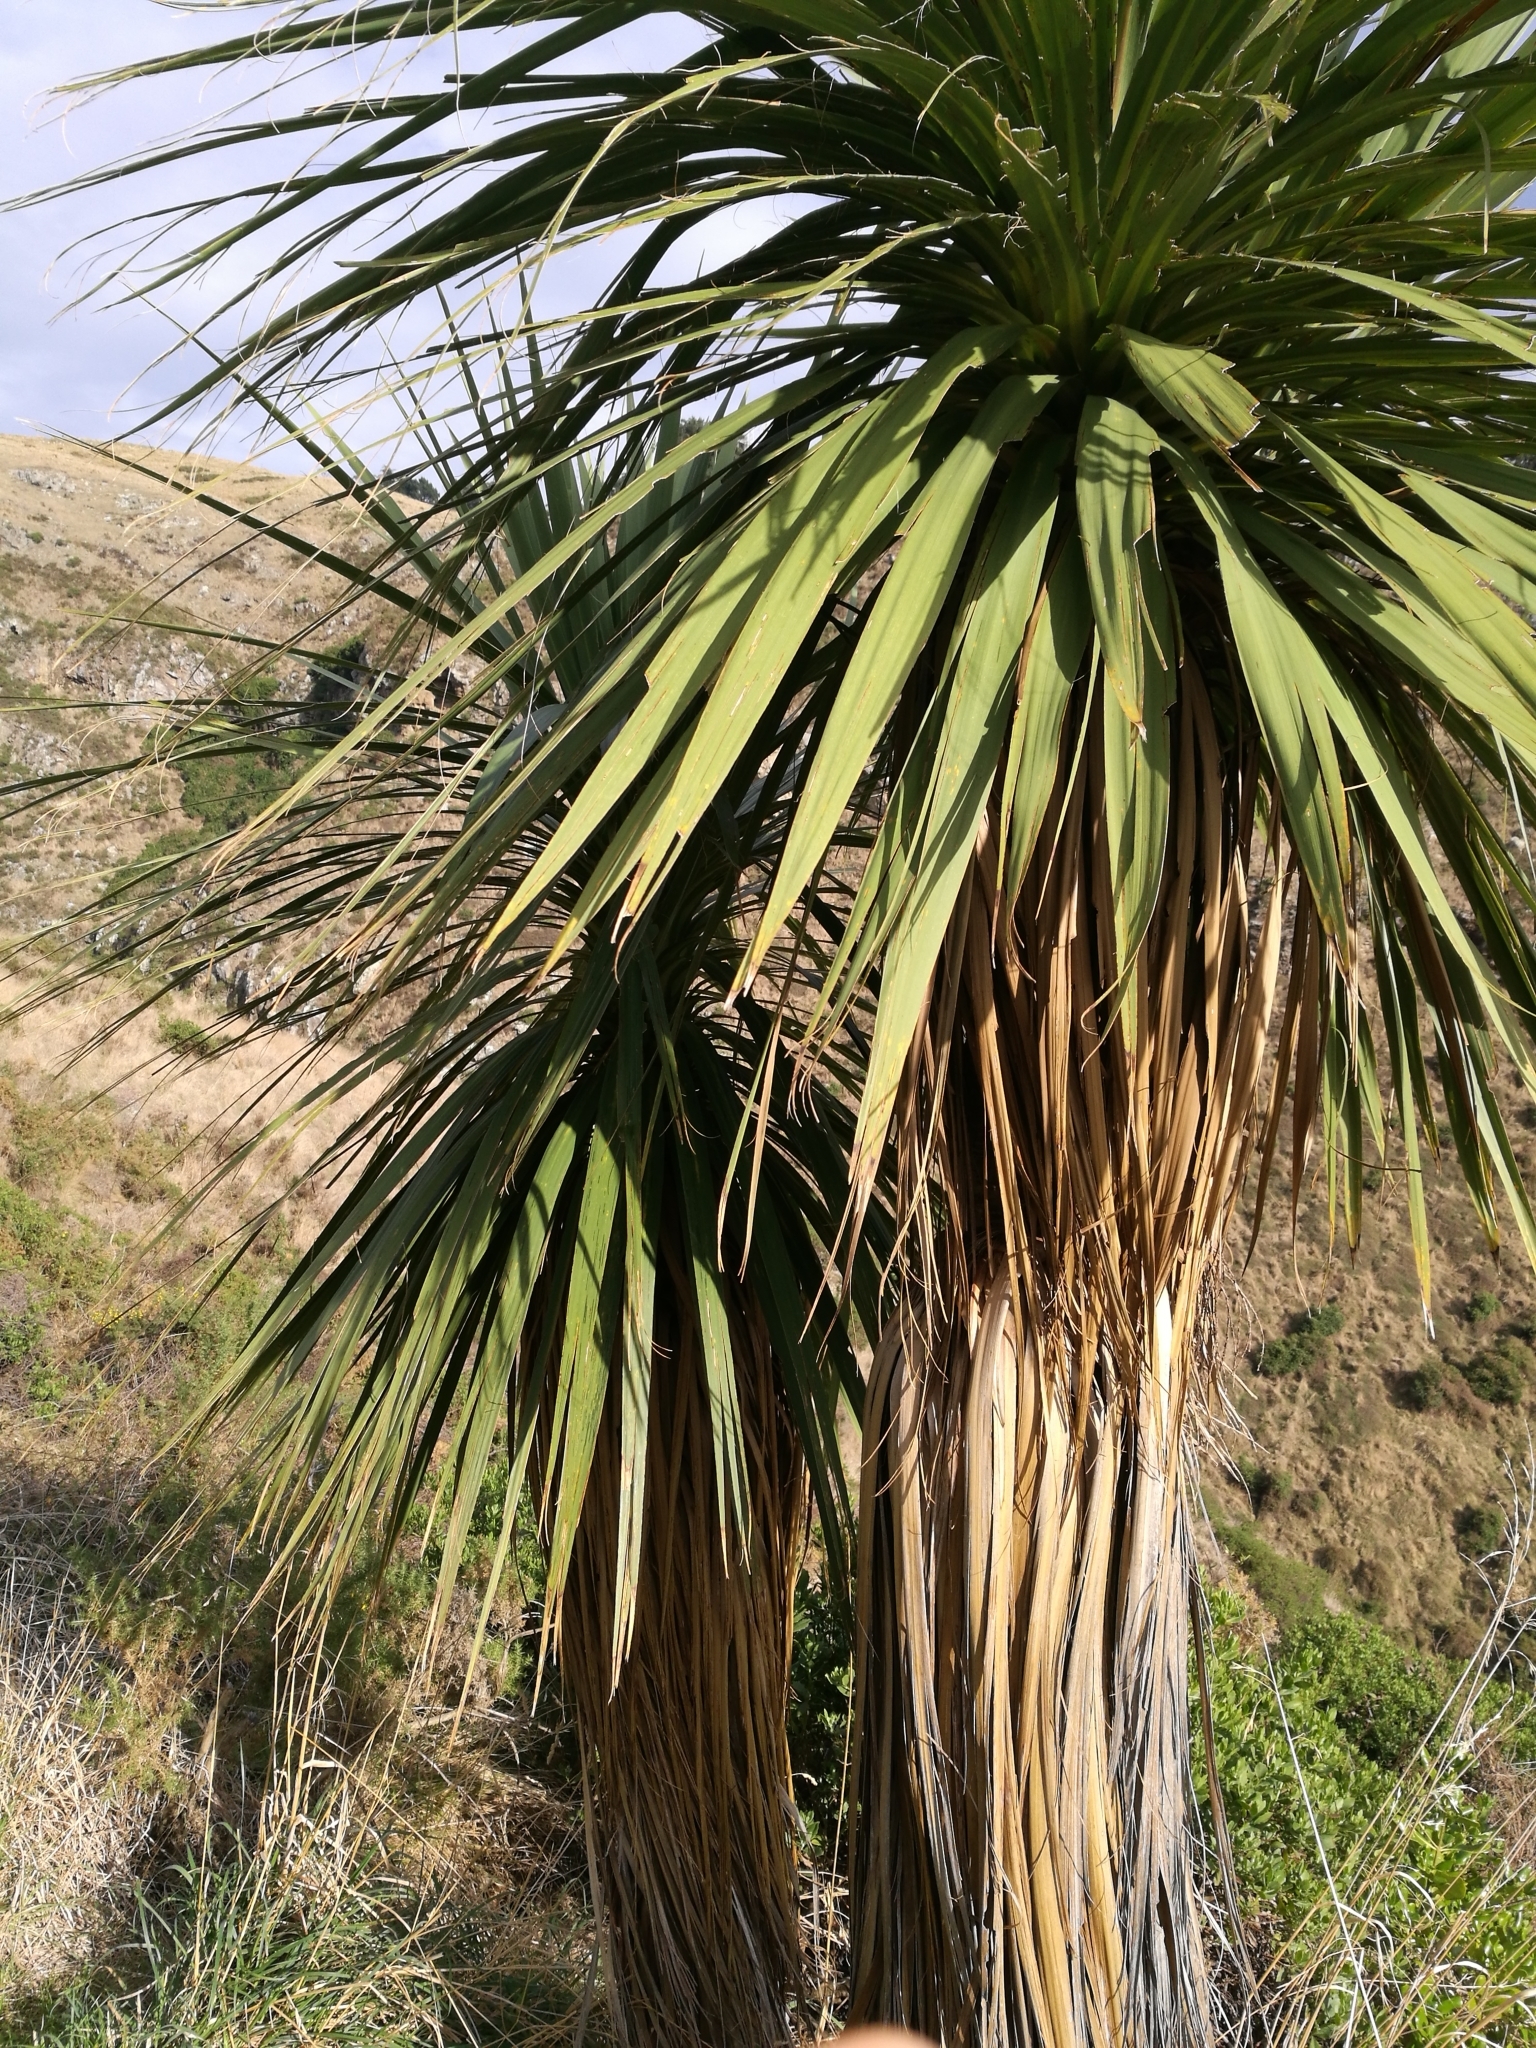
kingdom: Plantae
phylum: Tracheophyta
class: Liliopsida
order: Asparagales
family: Asparagaceae
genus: Cordyline
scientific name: Cordyline australis
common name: Cabbage-palm
